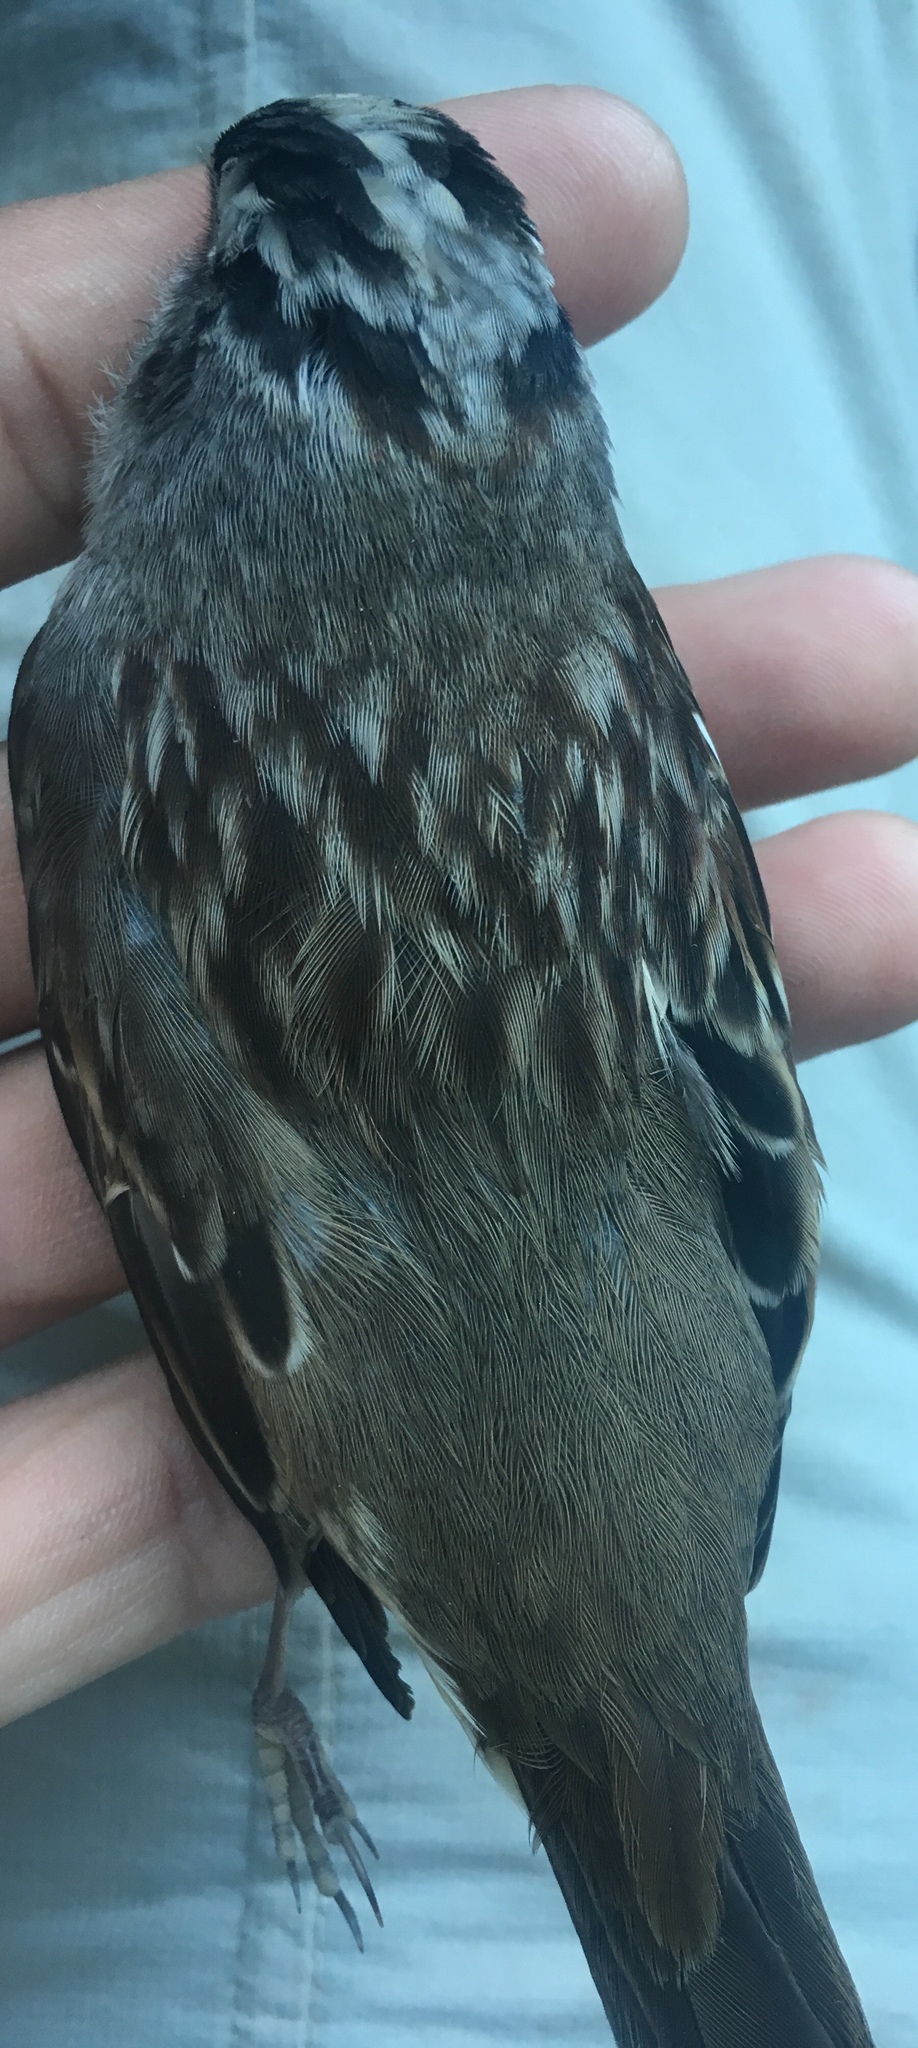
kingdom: Animalia
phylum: Chordata
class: Aves
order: Passeriformes
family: Passerellidae
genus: Zonotrichia
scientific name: Zonotrichia leucophrys
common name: White-crowned sparrow
